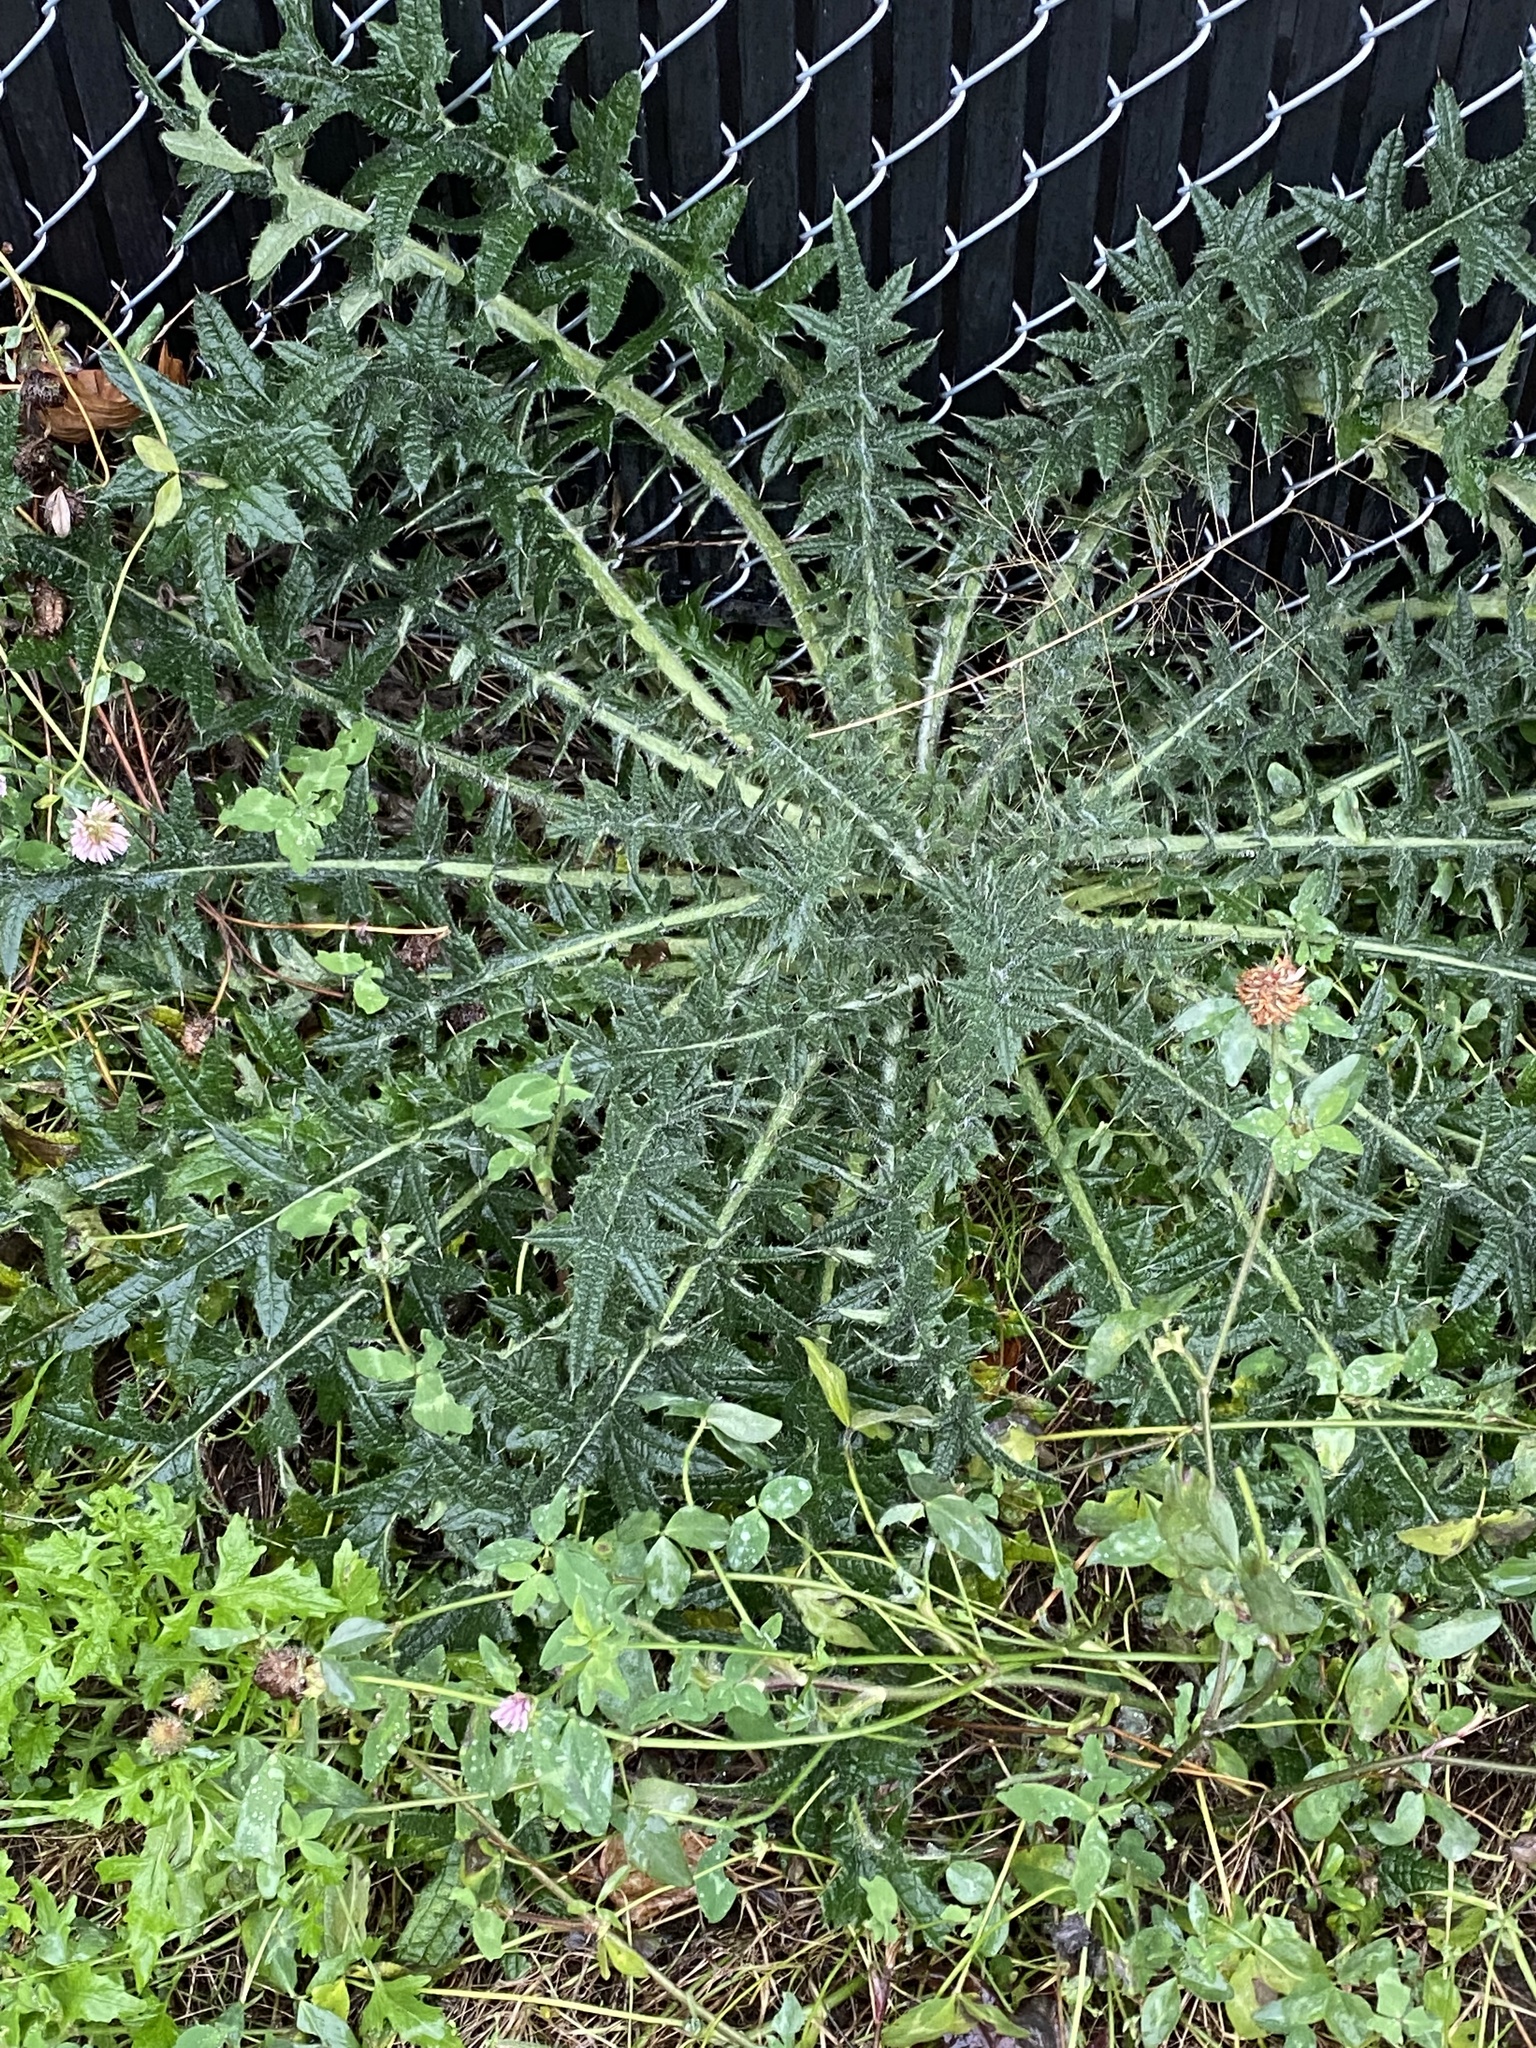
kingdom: Plantae
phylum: Tracheophyta
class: Magnoliopsida
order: Asterales
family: Asteraceae
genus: Cirsium
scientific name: Cirsium vulgare
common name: Bull thistle
